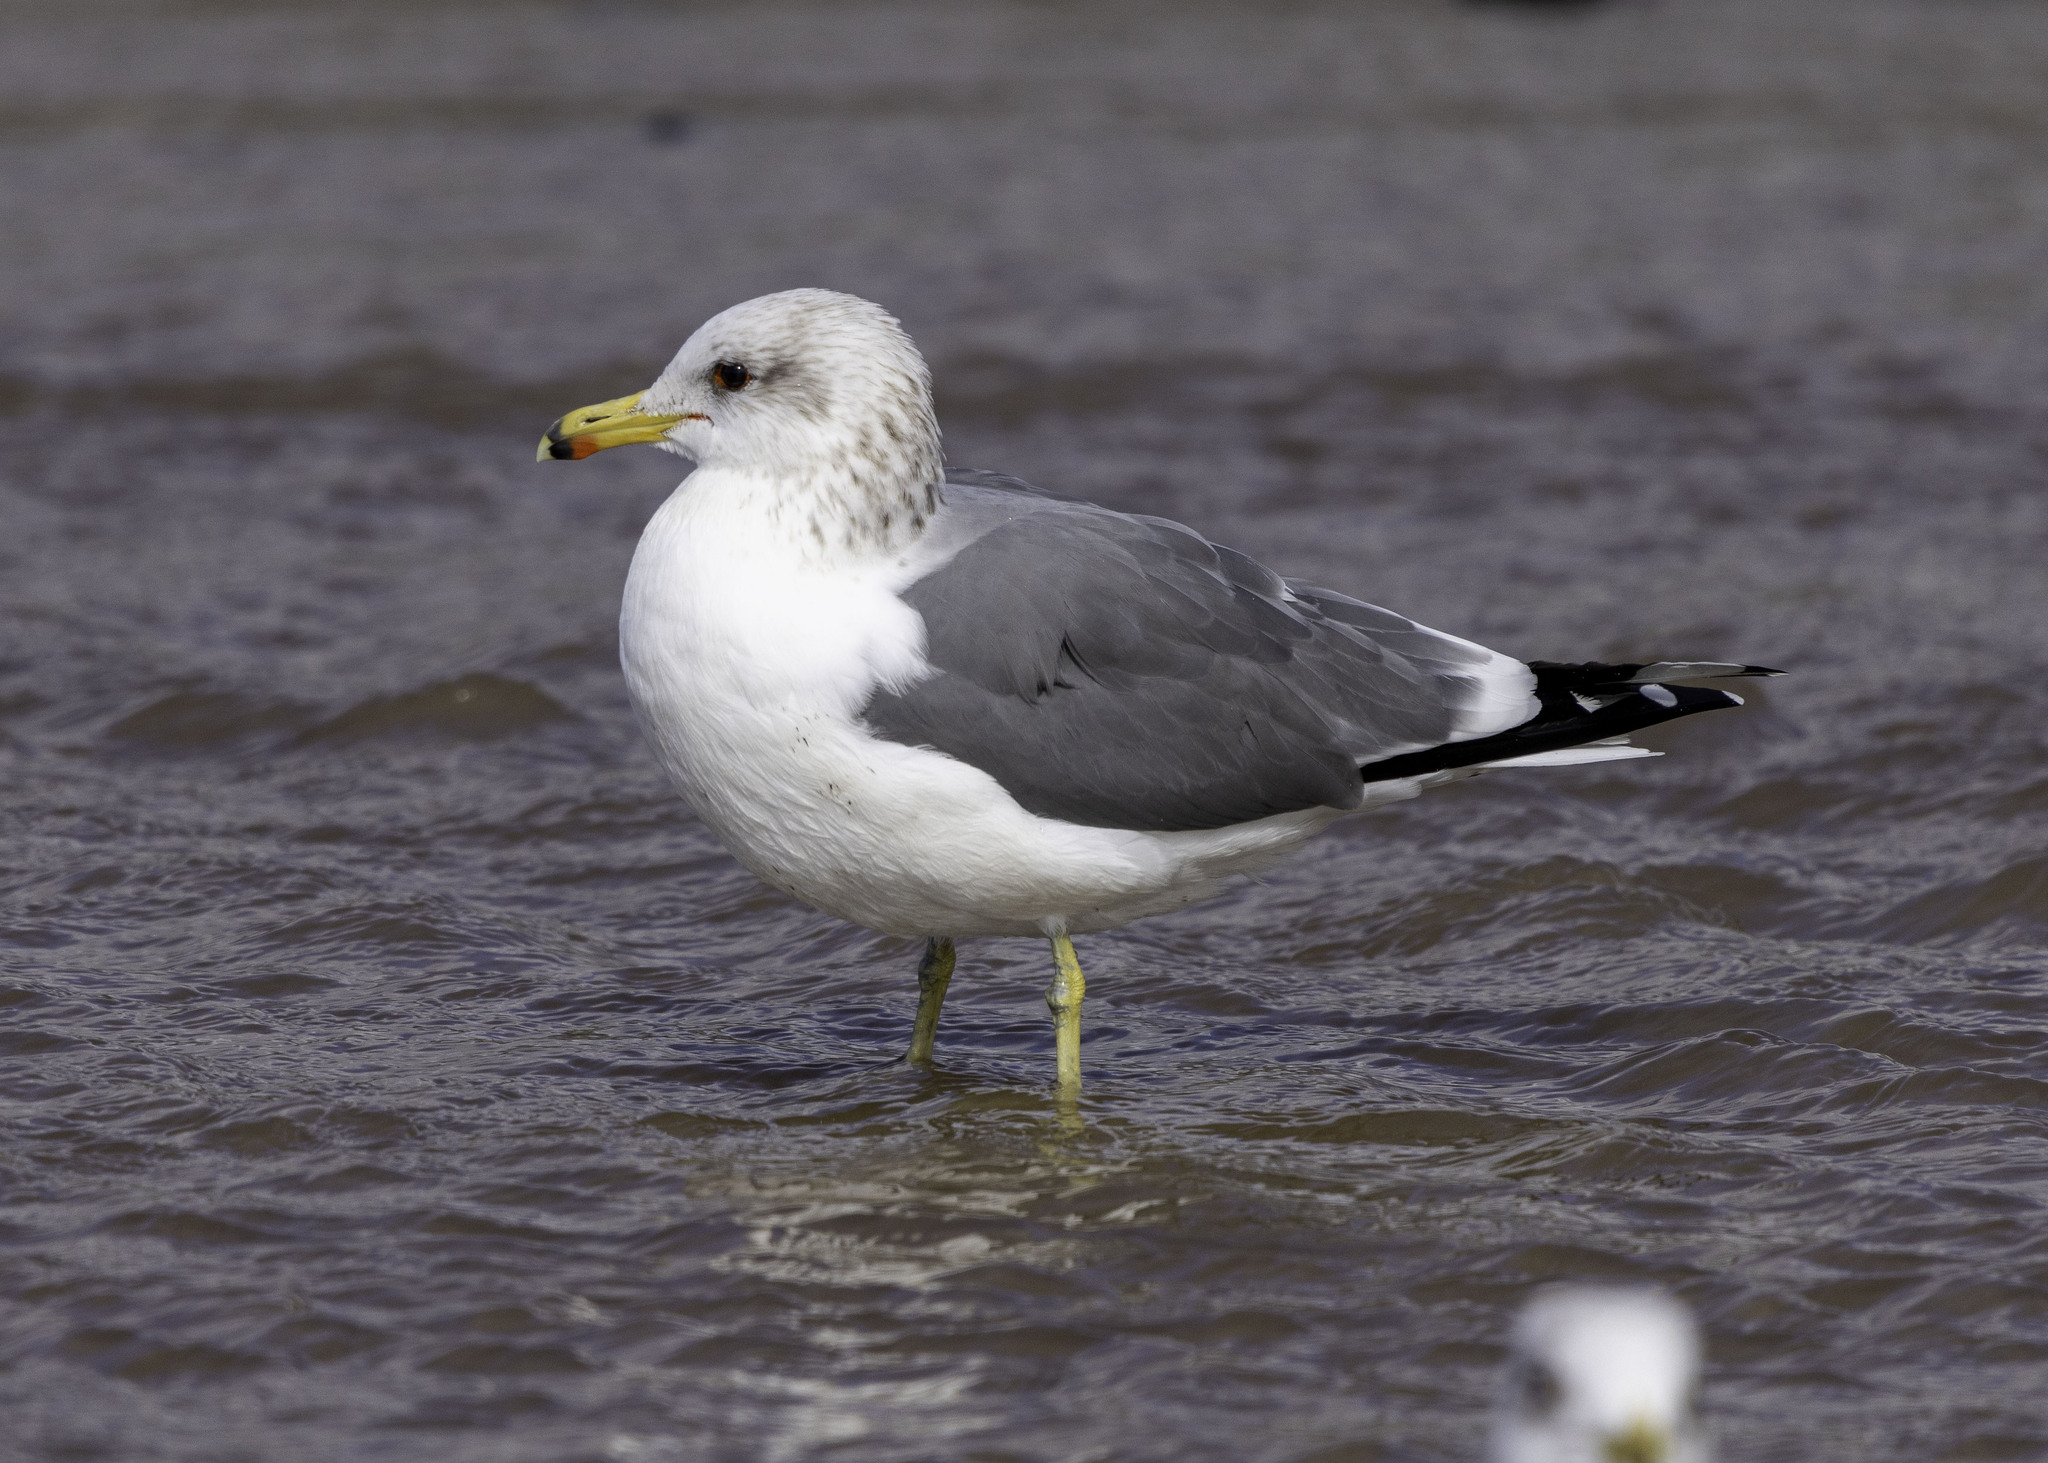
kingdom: Animalia
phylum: Chordata
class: Aves
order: Charadriiformes
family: Laridae
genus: Larus
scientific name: Larus californicus
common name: California gull
